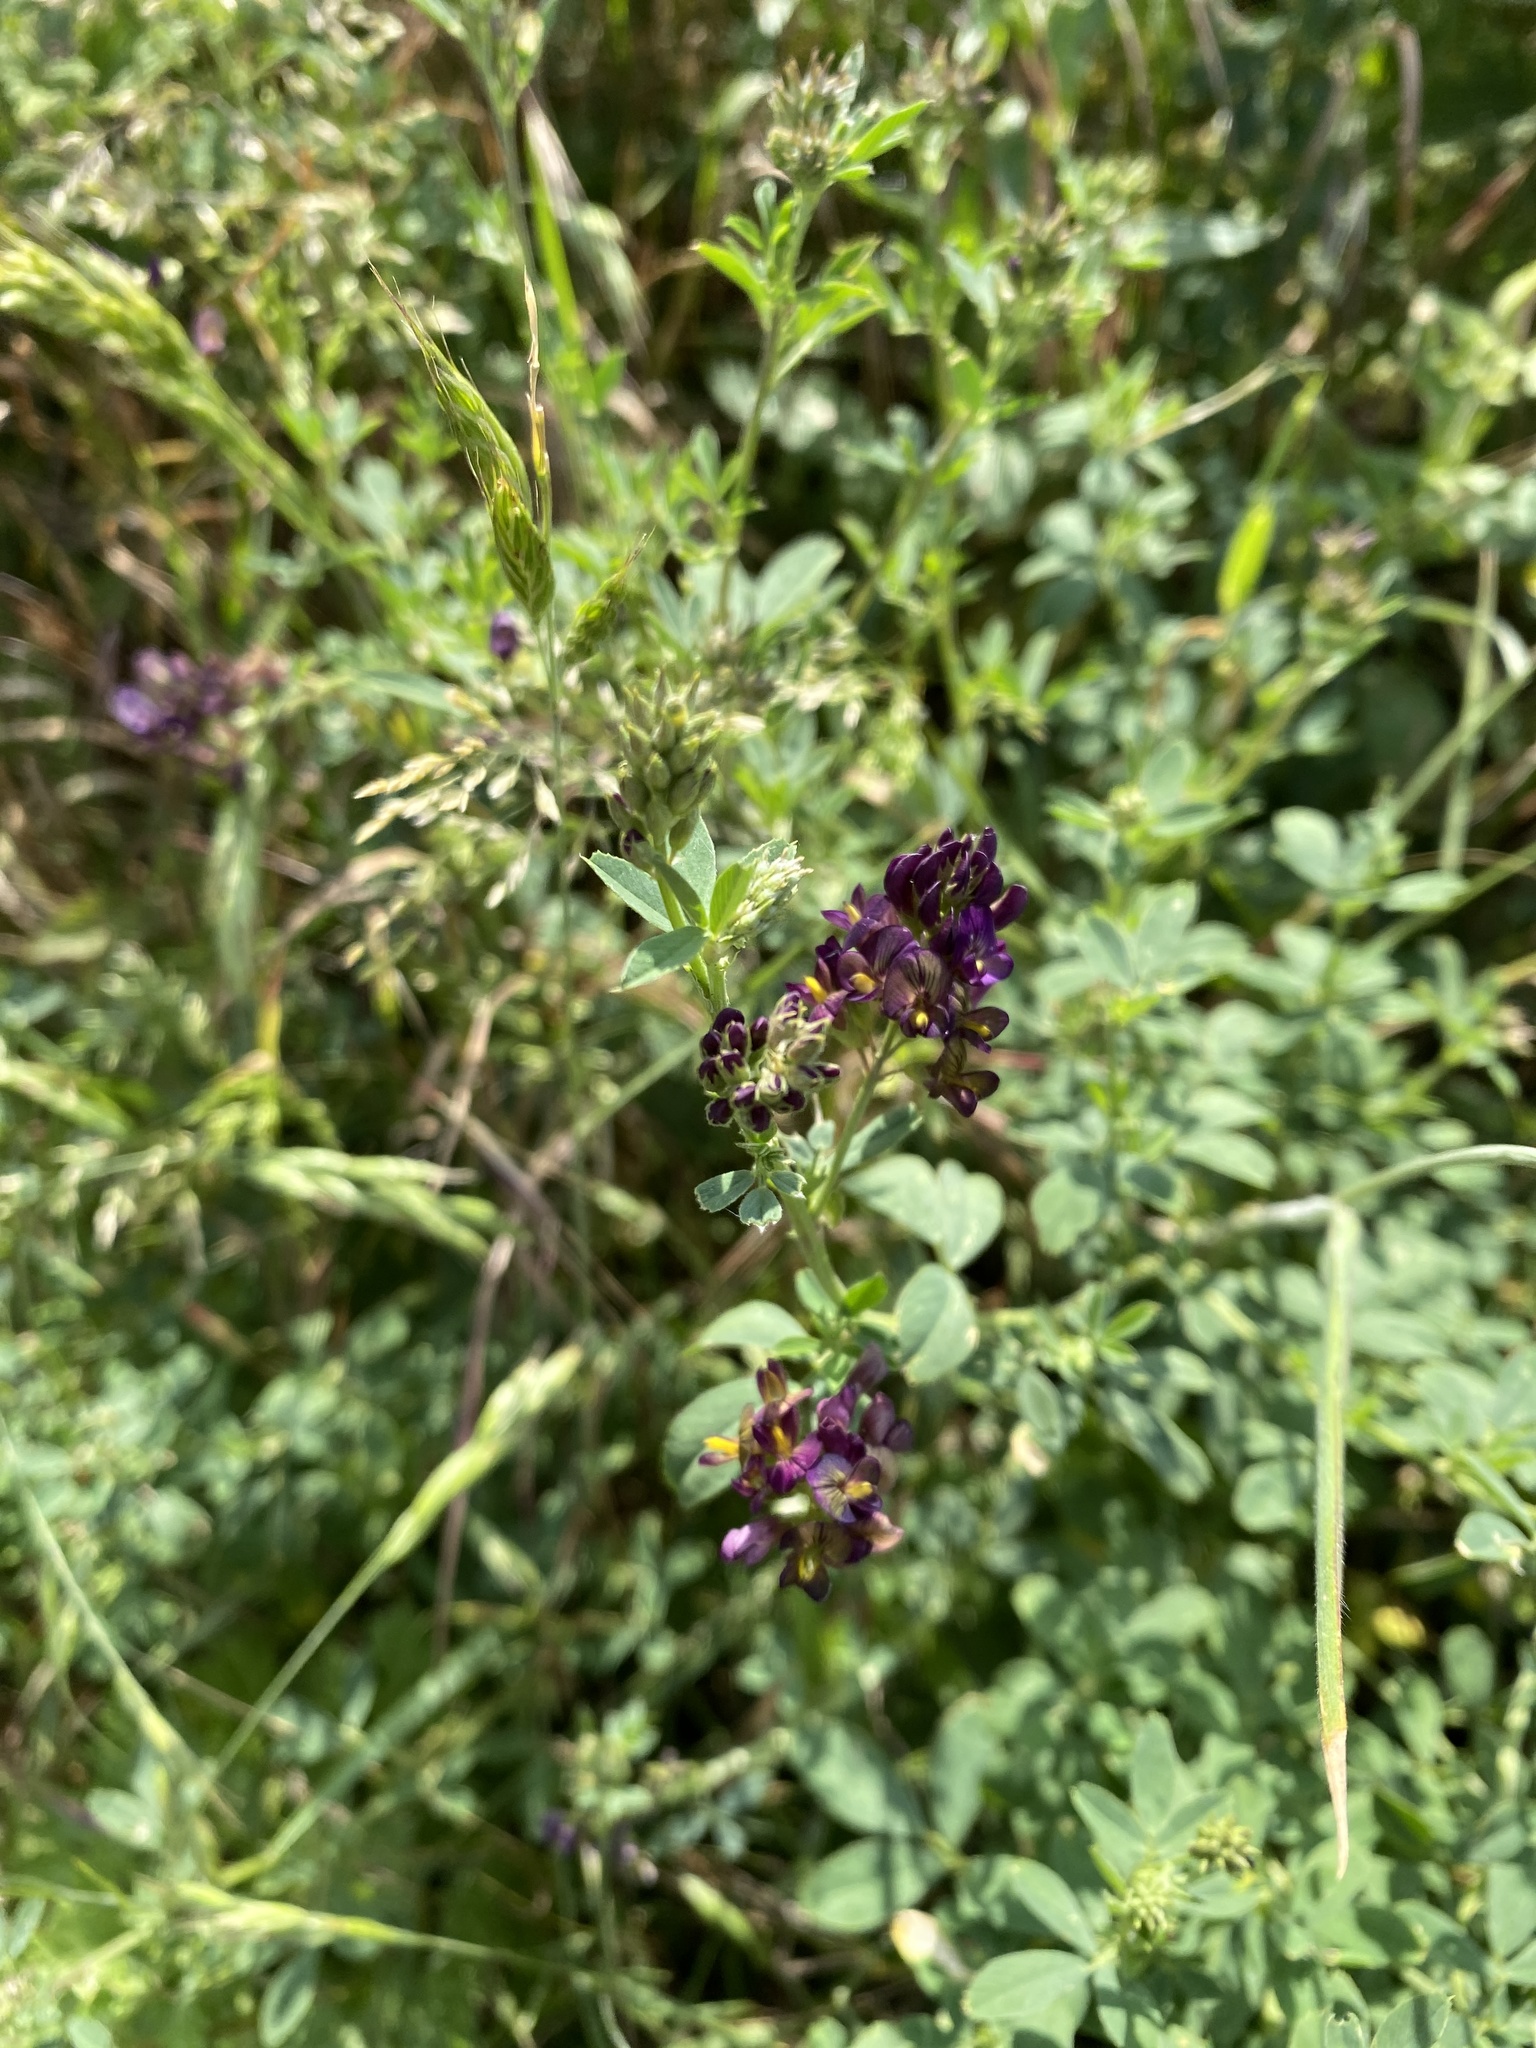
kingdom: Plantae
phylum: Tracheophyta
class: Magnoliopsida
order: Fabales
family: Fabaceae
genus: Medicago
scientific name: Medicago sativa
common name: Alfalfa
